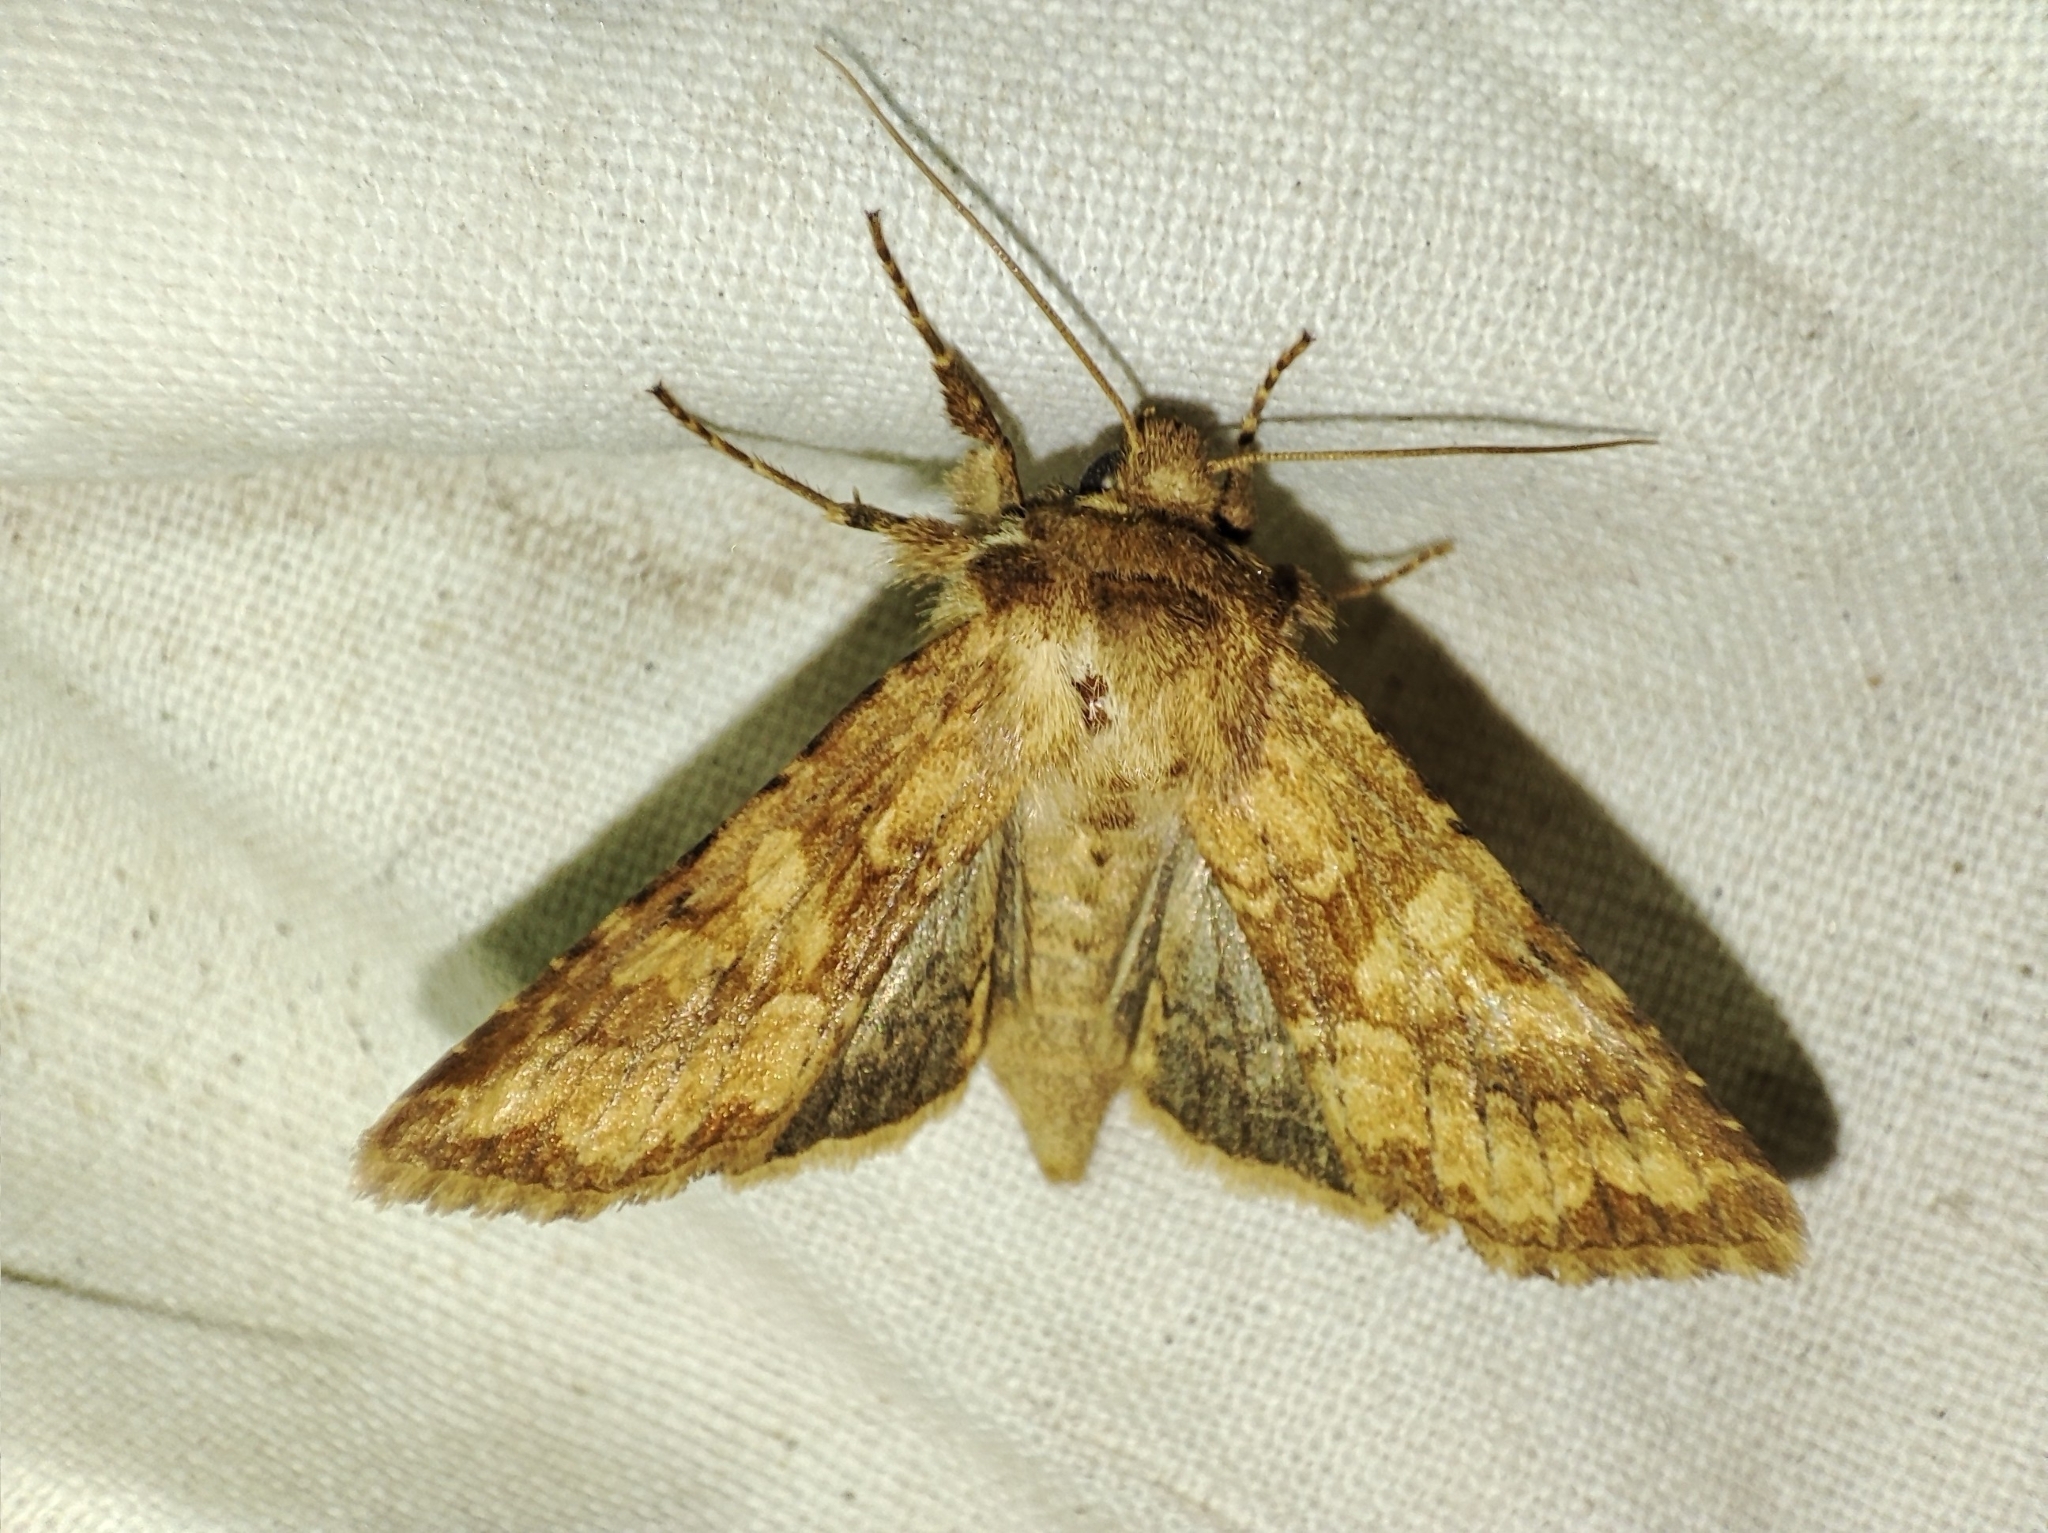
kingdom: Animalia
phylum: Arthropoda
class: Insecta
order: Lepidoptera
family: Noctuidae
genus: Conisania
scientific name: Conisania luteago
